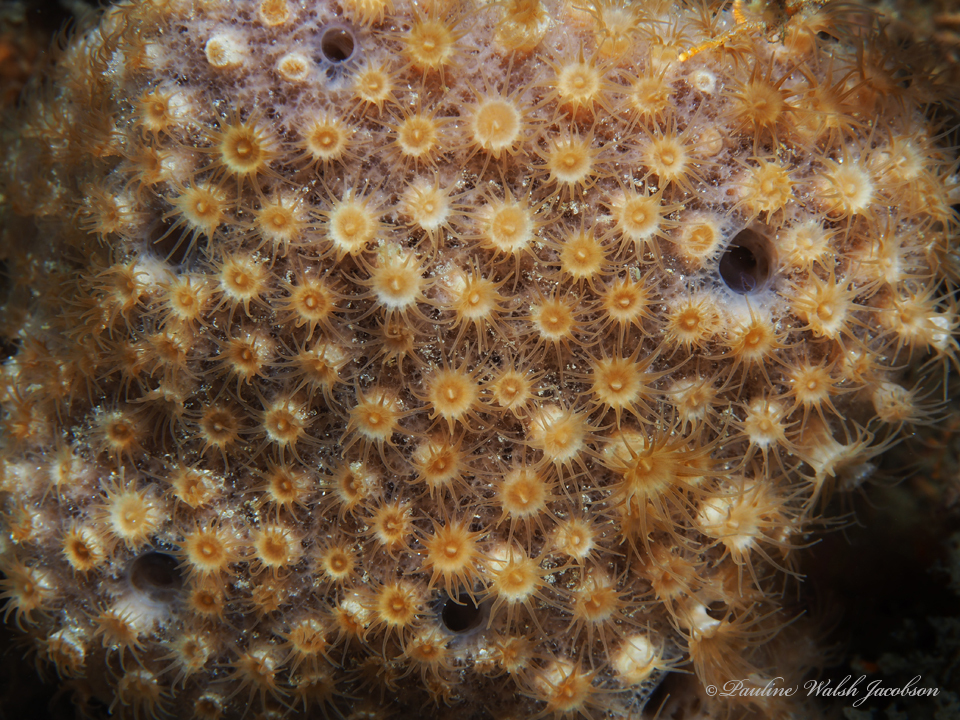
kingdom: Animalia
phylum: Cnidaria
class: Anthozoa
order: Zoantharia
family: Parazoanthidae
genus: Umimayanthus
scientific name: Umimayanthus parasiticus
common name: Sponge zoanthid
